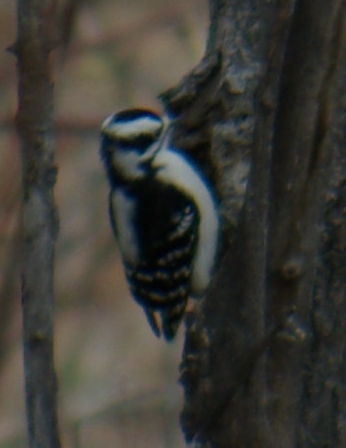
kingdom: Animalia
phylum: Chordata
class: Aves
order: Piciformes
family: Picidae
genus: Dryobates
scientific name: Dryobates pubescens
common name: Downy woodpecker
